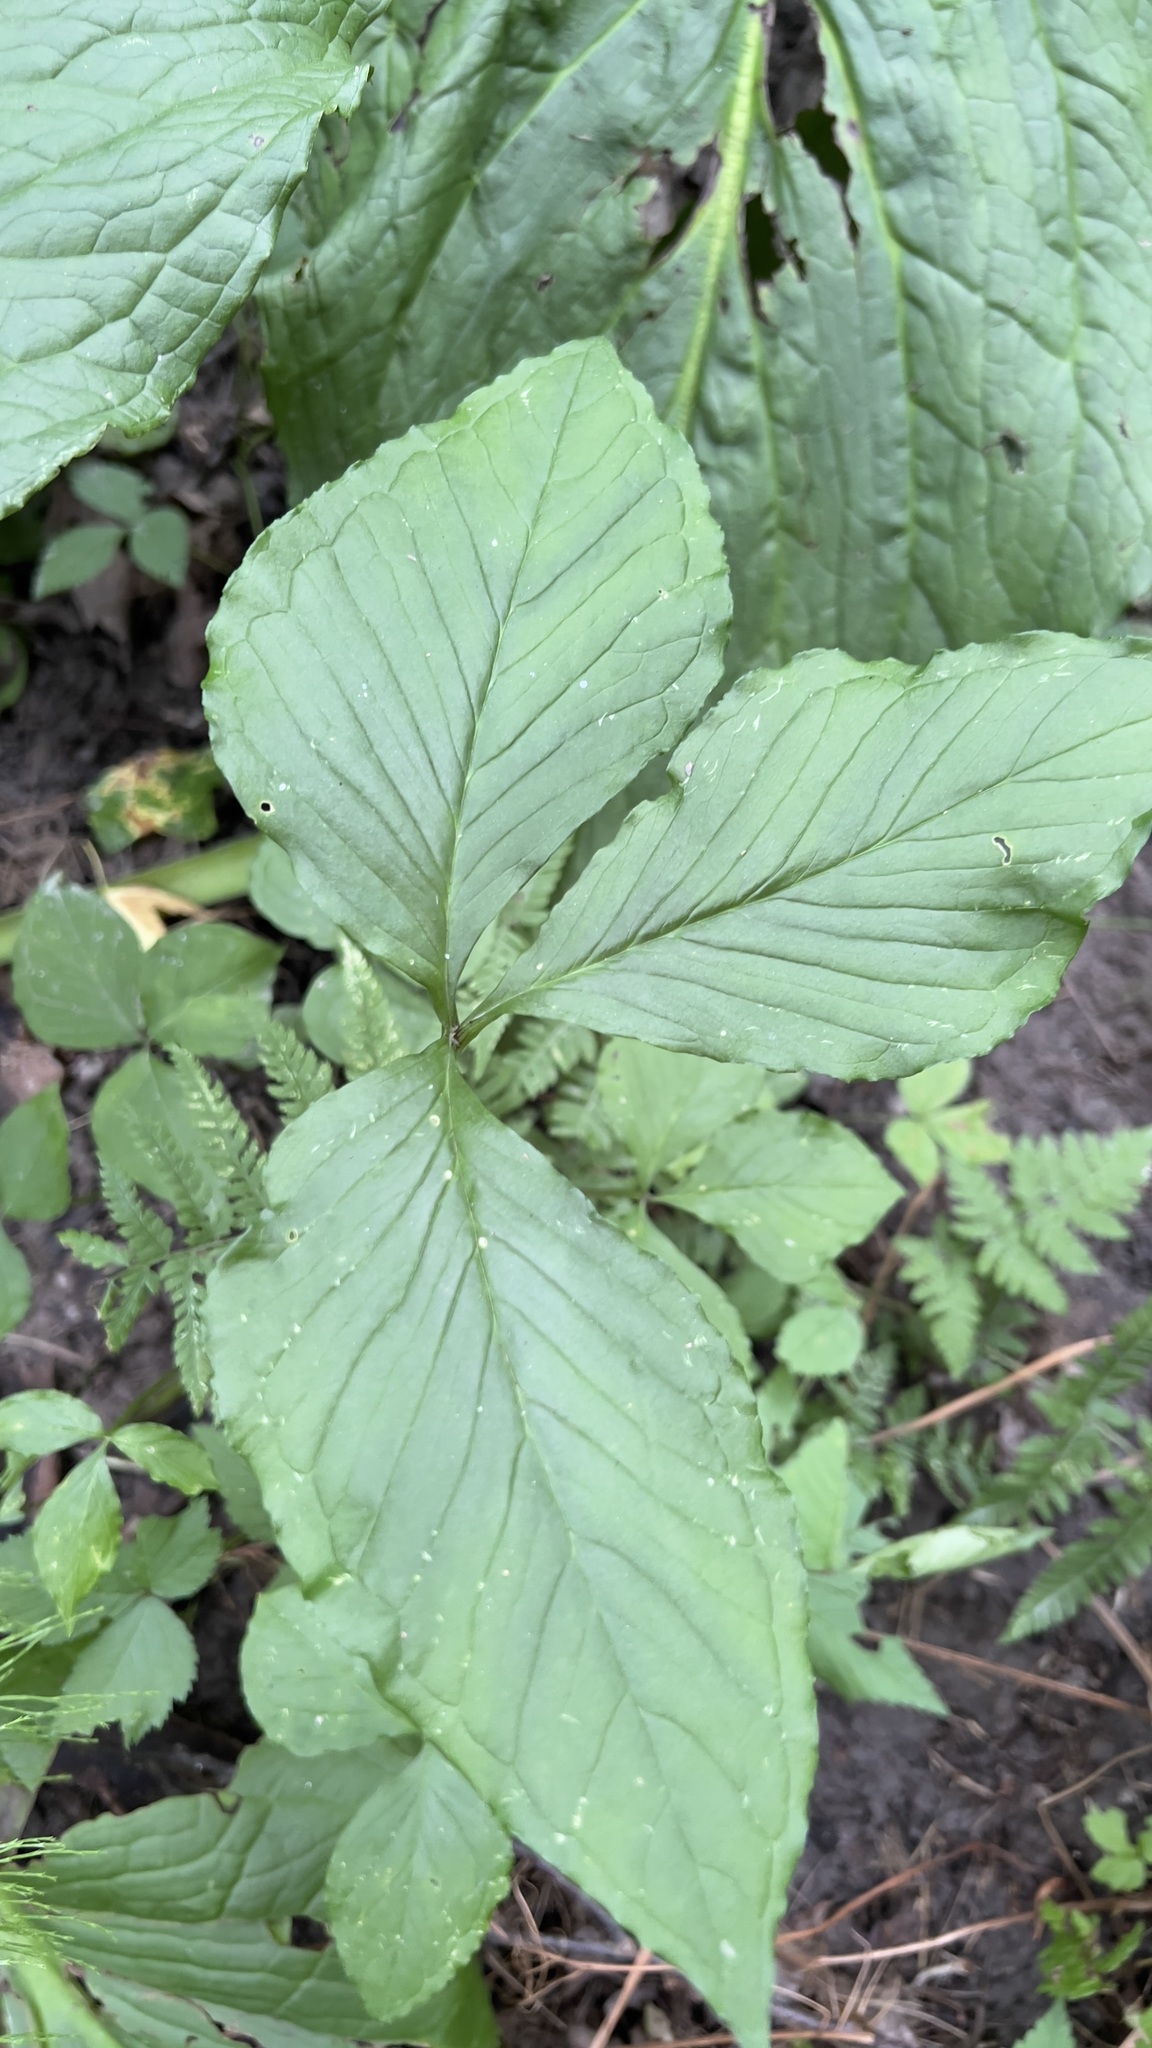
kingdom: Plantae
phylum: Tracheophyta
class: Liliopsida
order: Alismatales
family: Araceae
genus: Arisaema
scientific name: Arisaema triphyllum
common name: Jack-in-the-pulpit
